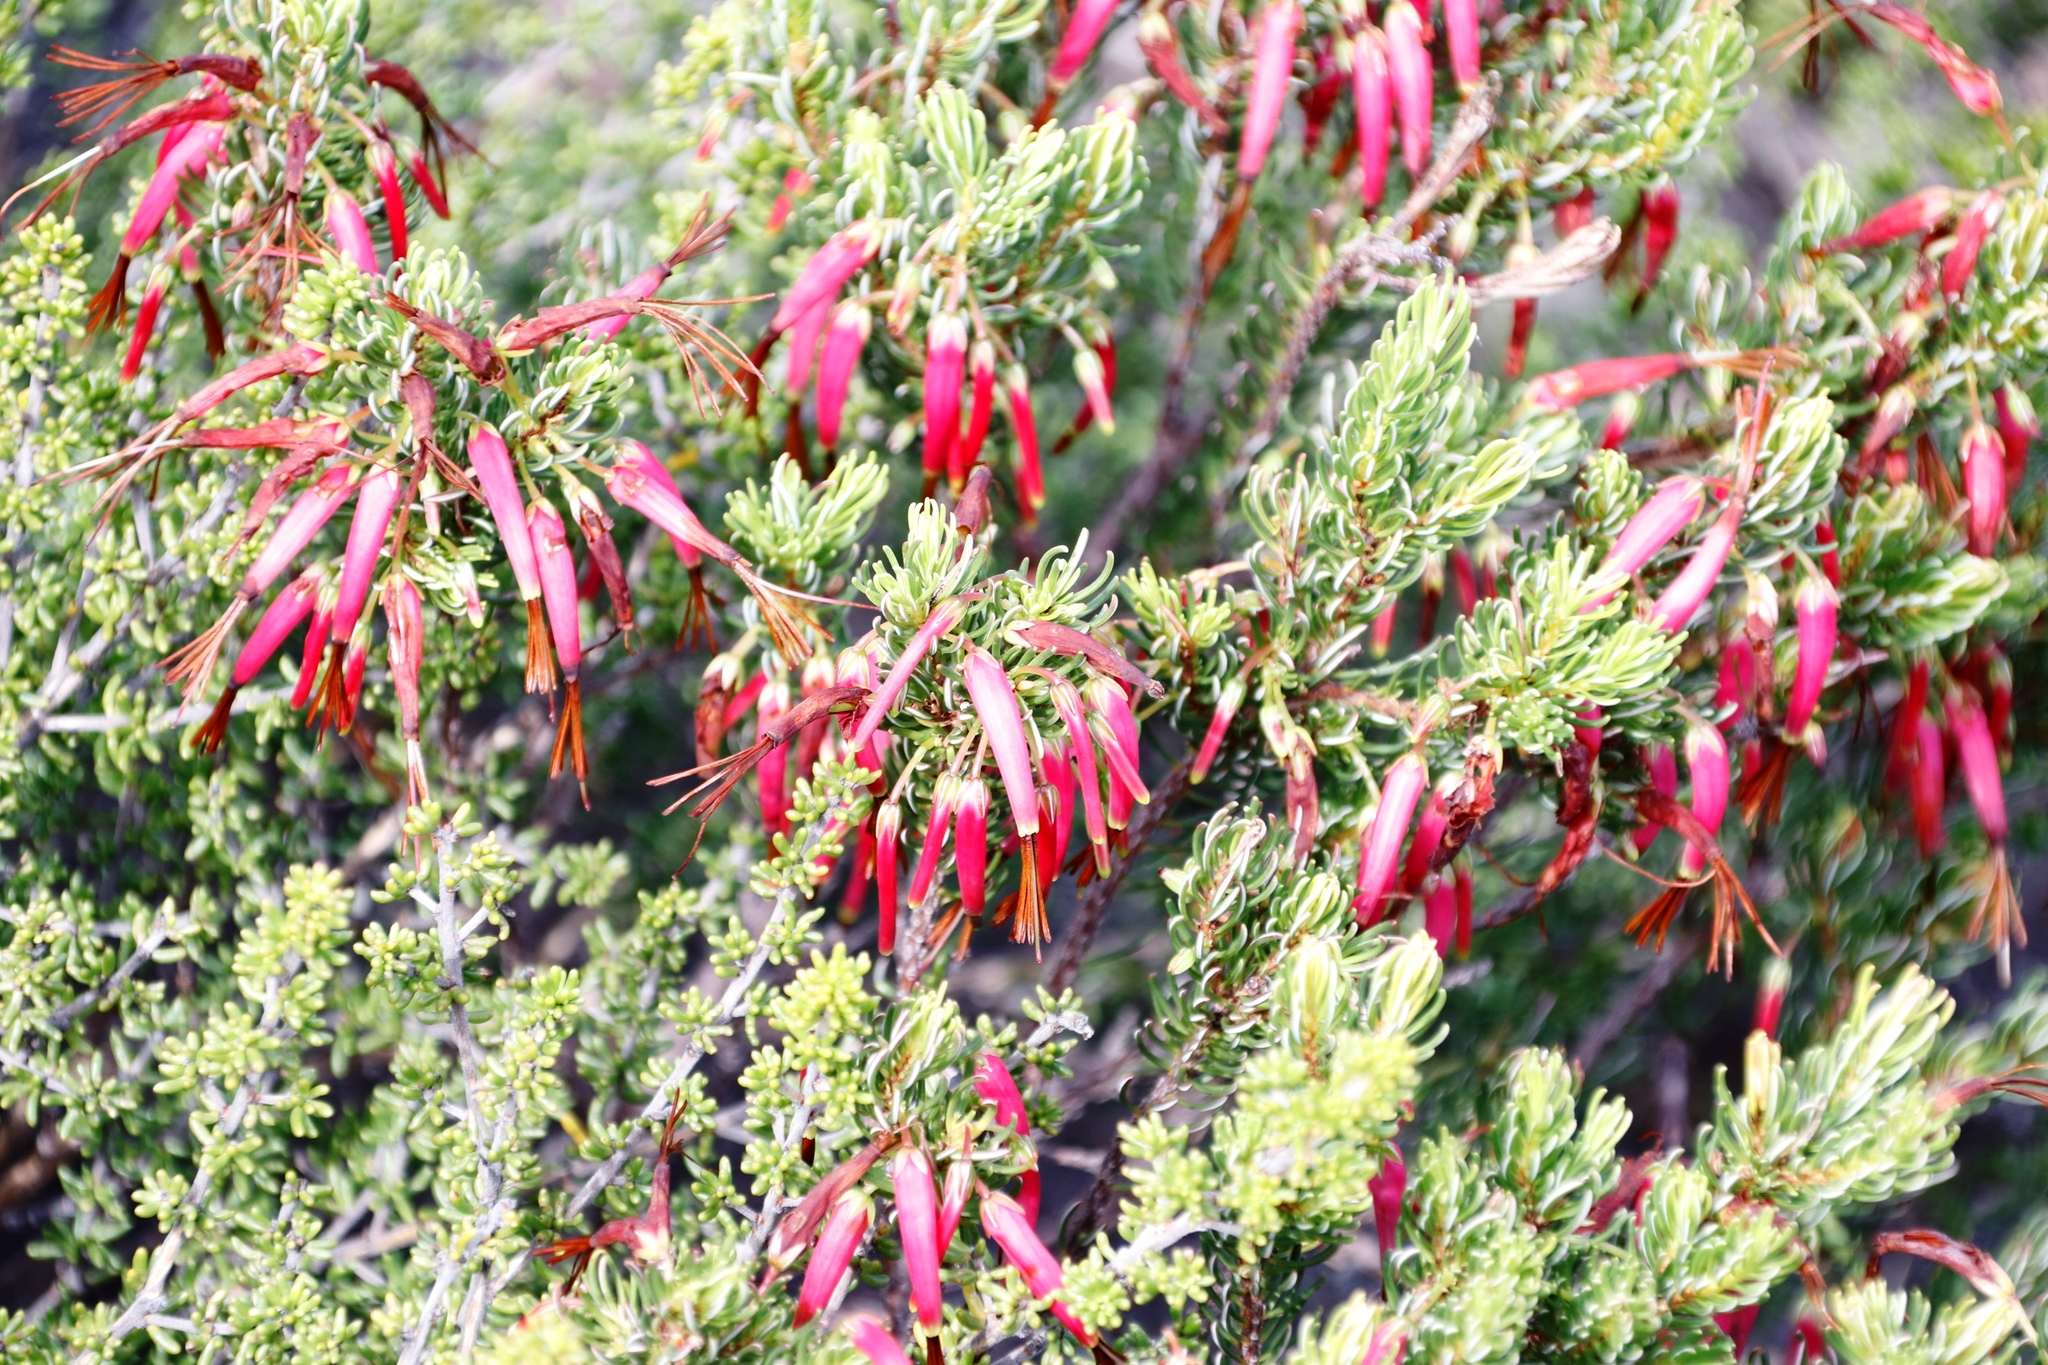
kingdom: Plantae
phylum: Tracheophyta
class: Magnoliopsida
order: Ericales
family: Ericaceae
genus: Erica
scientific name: Erica plukenetii
